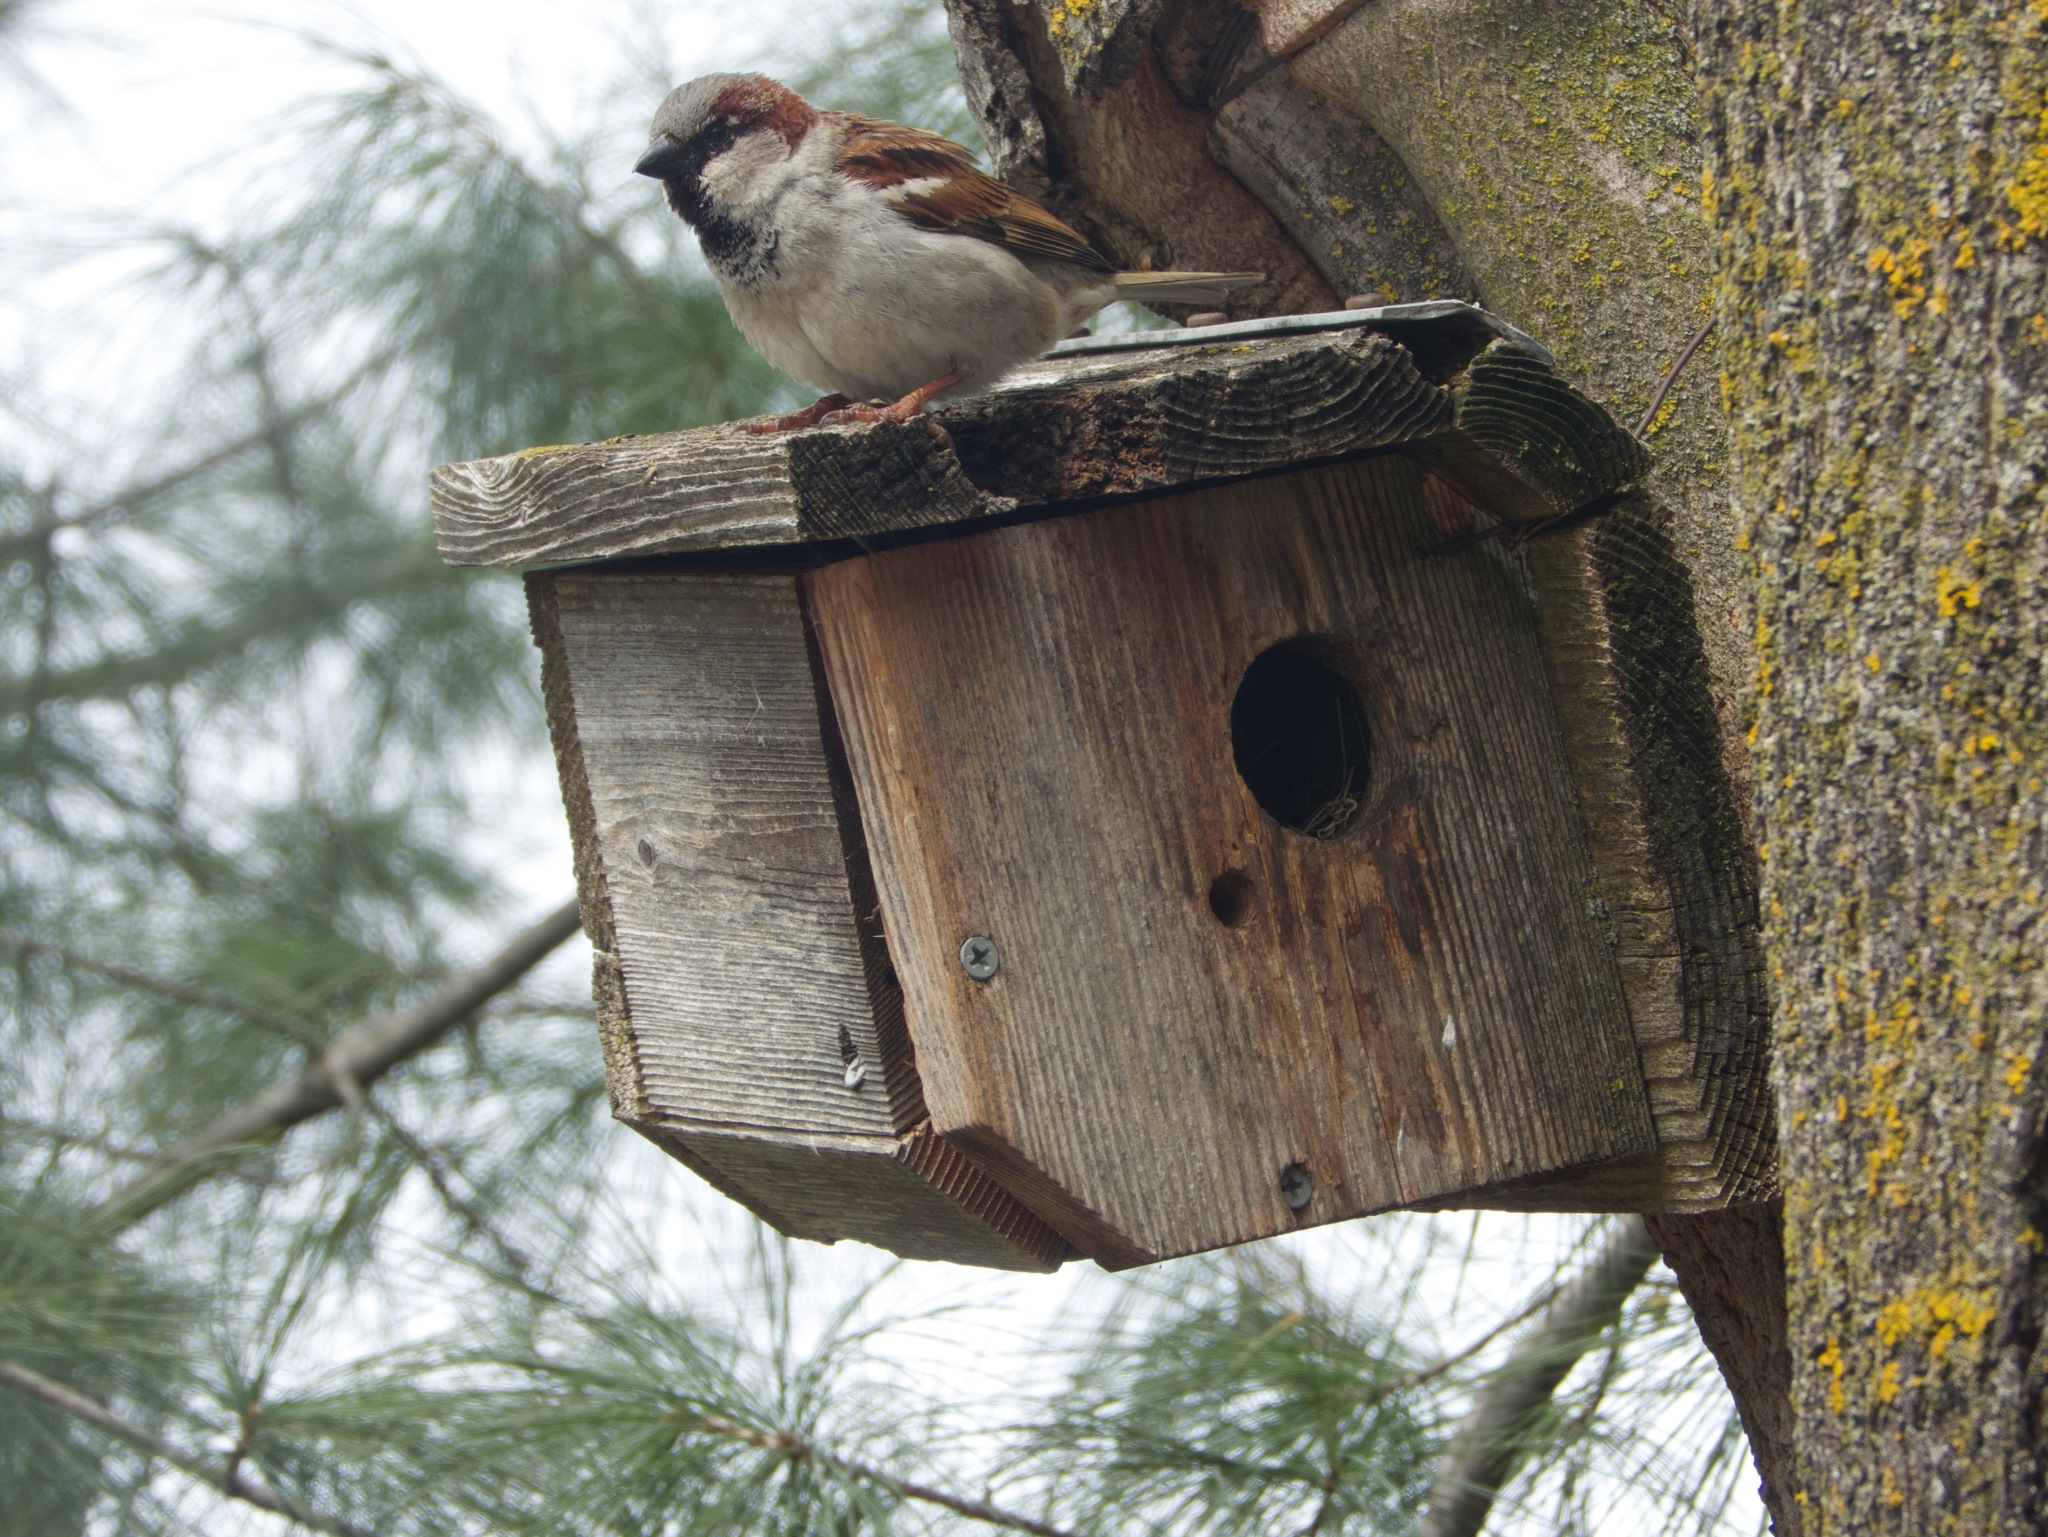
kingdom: Animalia
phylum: Chordata
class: Aves
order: Passeriformes
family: Passeridae
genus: Passer
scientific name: Passer domesticus
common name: House sparrow
